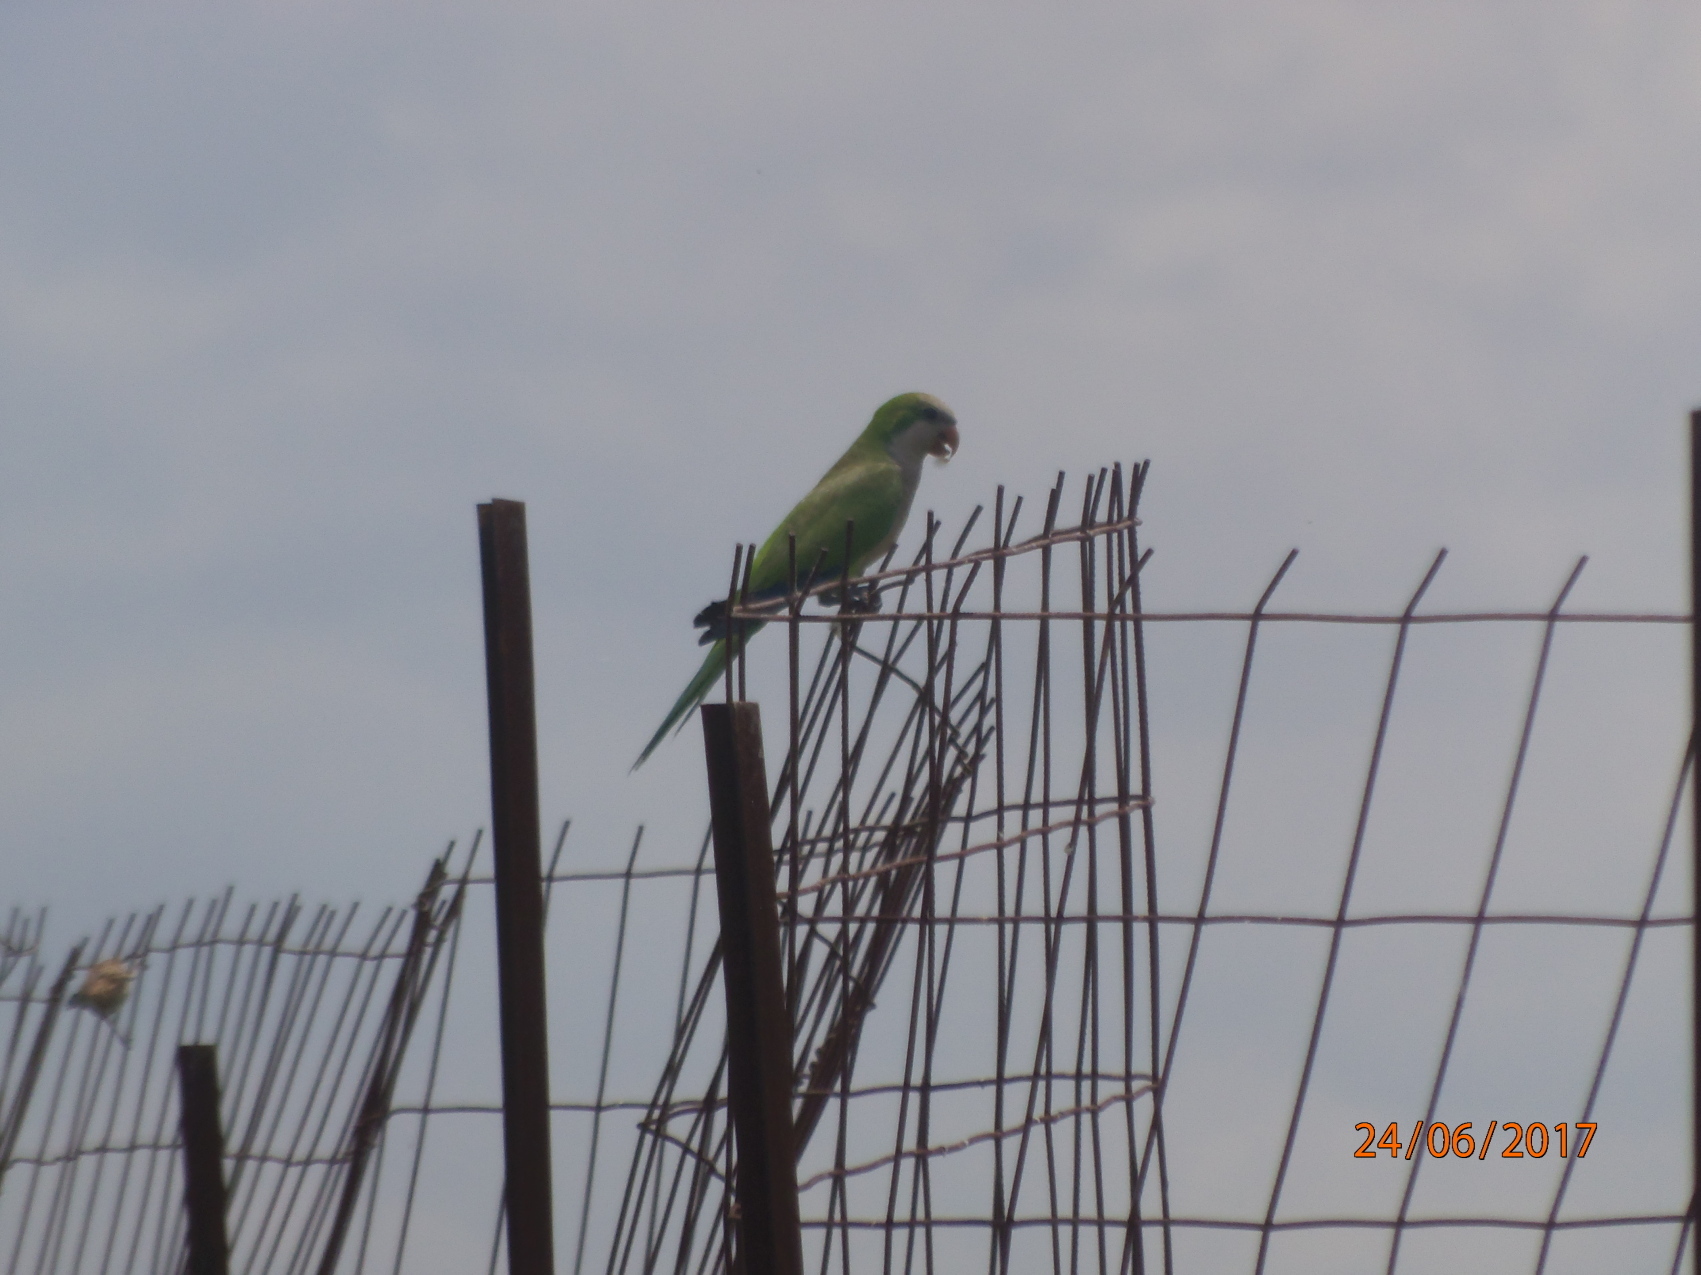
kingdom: Animalia
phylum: Chordata
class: Aves
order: Psittaciformes
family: Psittacidae
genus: Myiopsitta
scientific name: Myiopsitta monachus
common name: Monk parakeet
